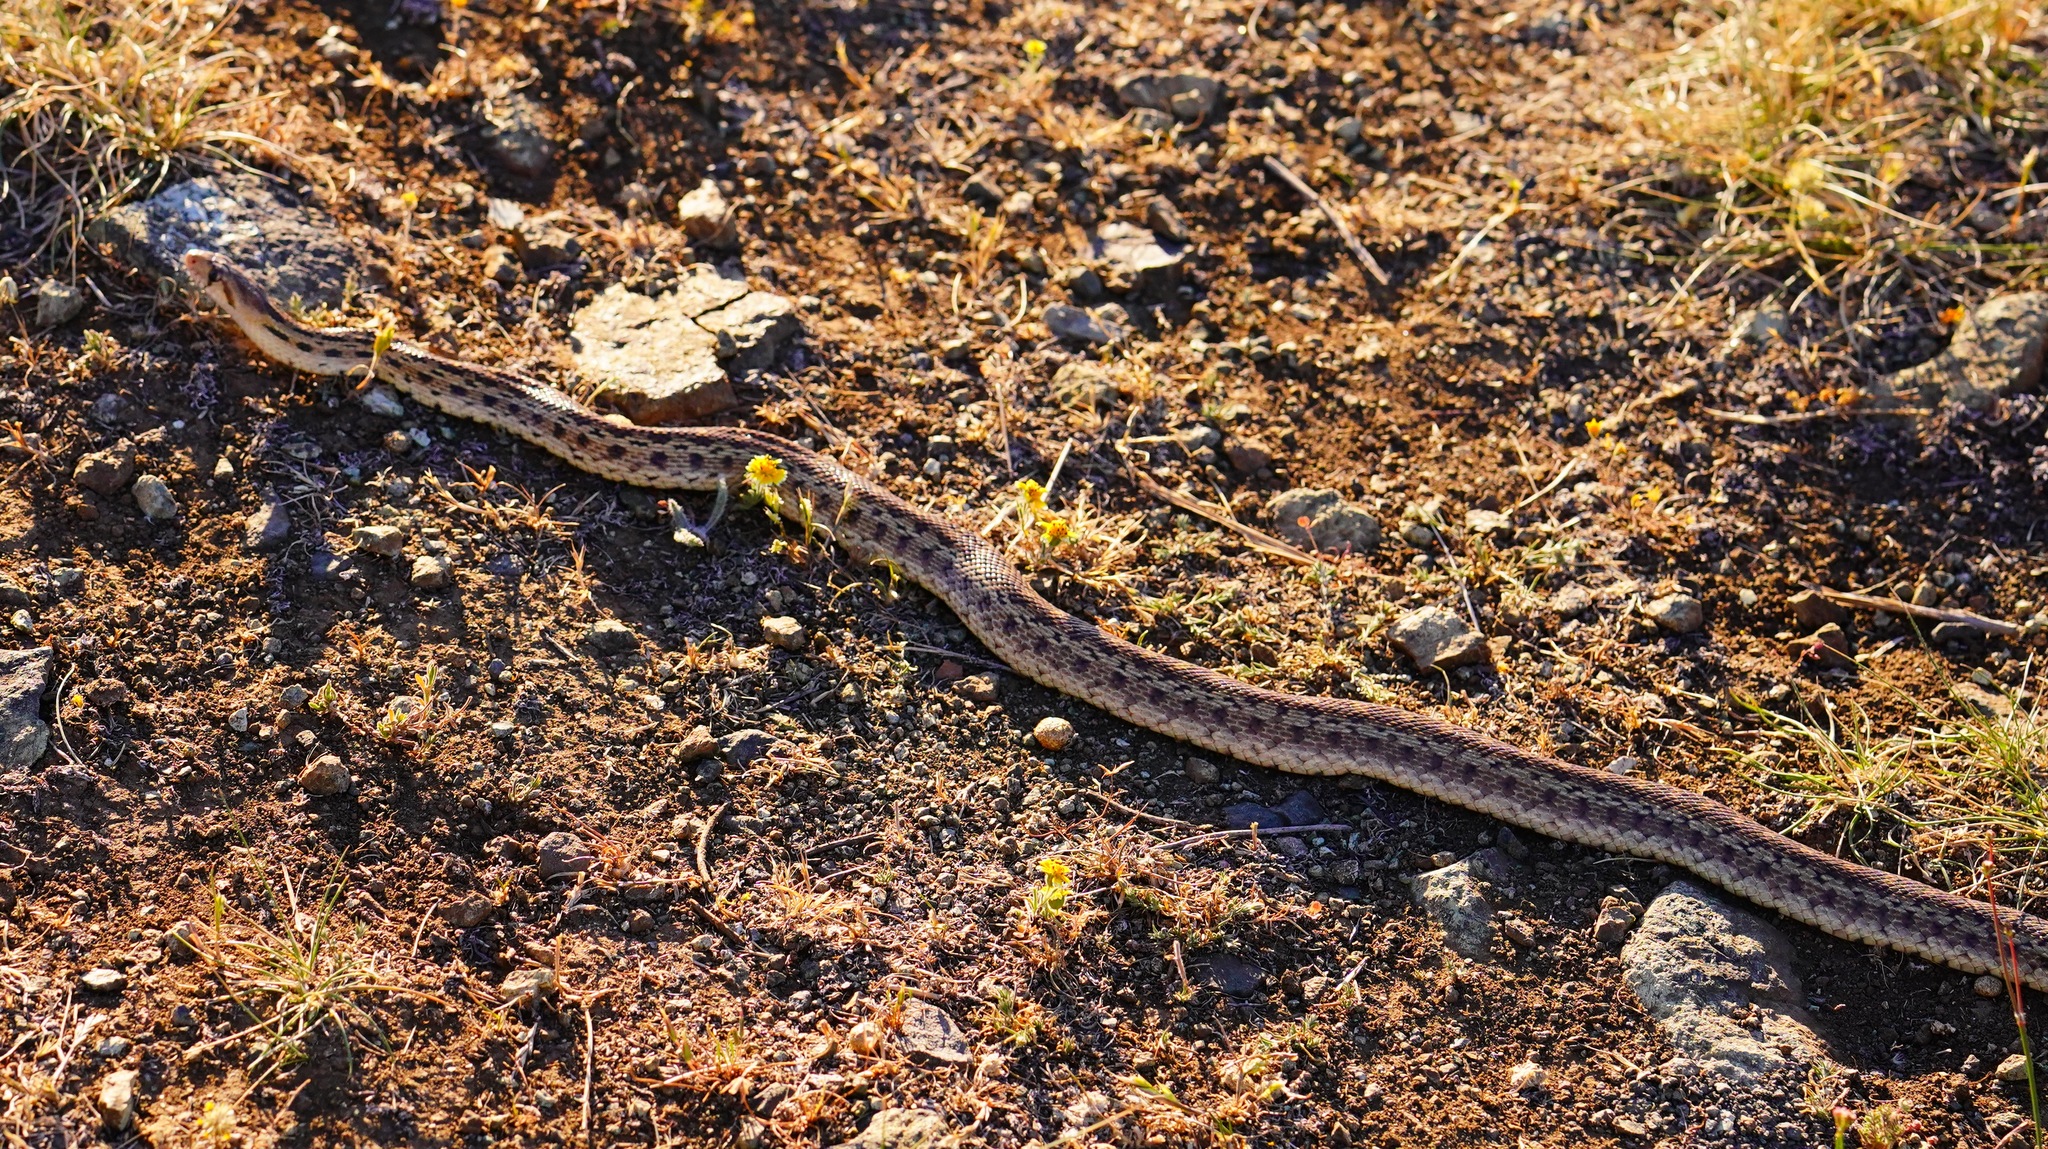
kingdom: Animalia
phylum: Chordata
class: Squamata
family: Colubridae
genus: Pituophis
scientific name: Pituophis catenifer
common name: Gopher snake
